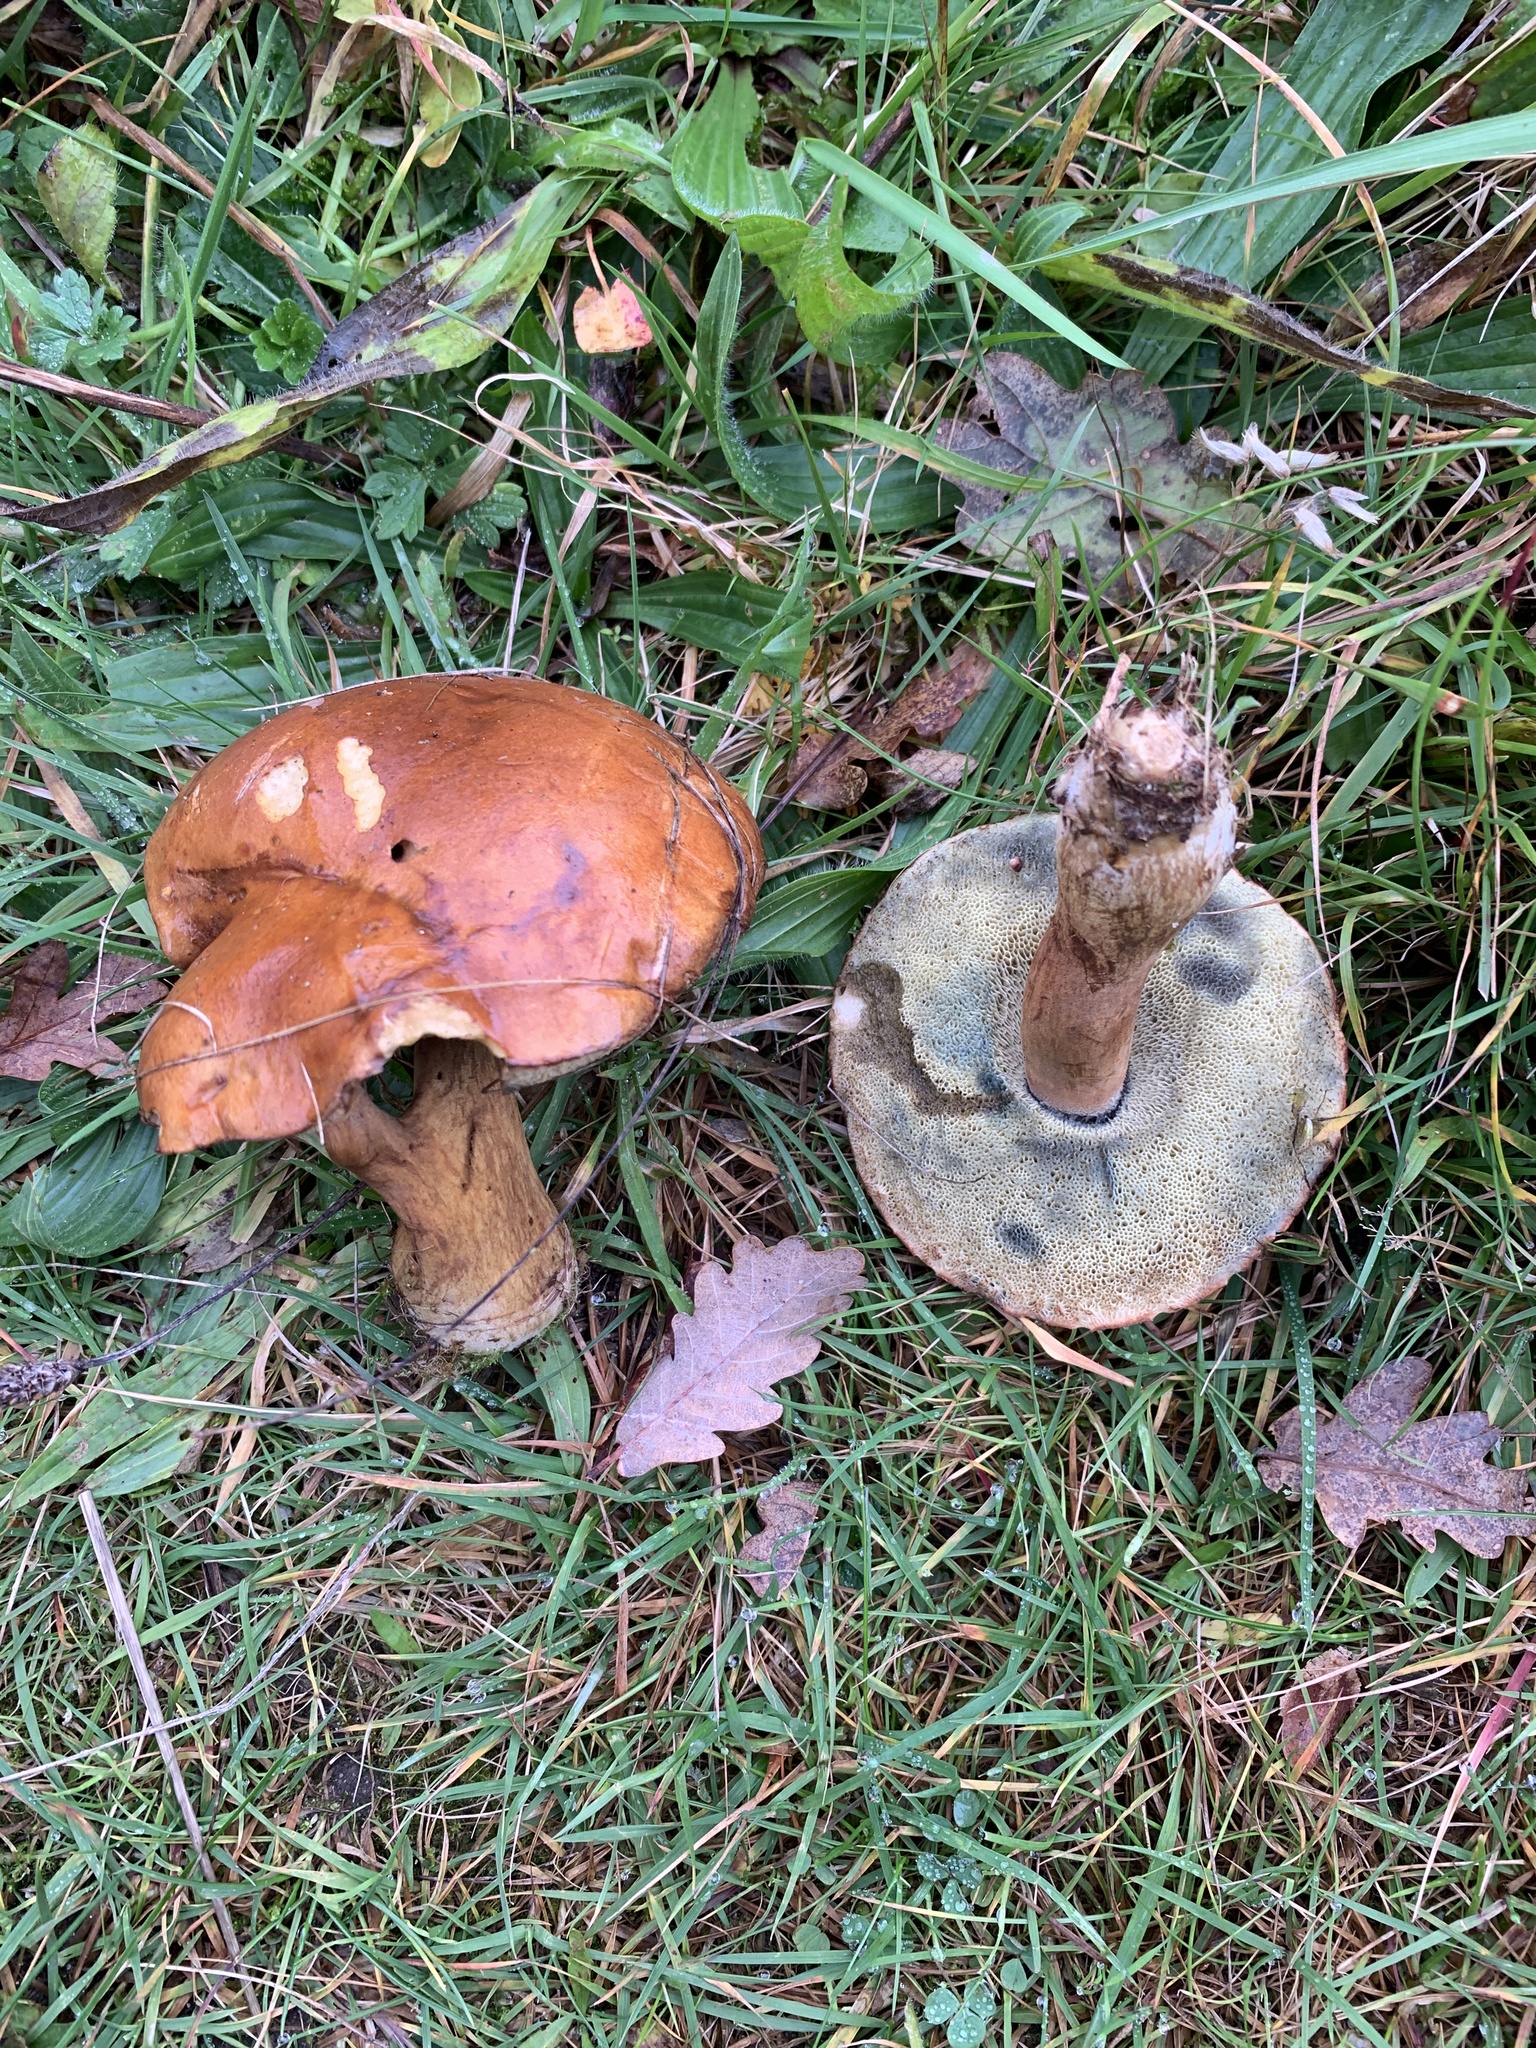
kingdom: Fungi
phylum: Basidiomycota
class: Agaricomycetes
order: Boletales
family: Boletaceae
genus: Imleria
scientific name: Imleria badia
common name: Bay bolete
